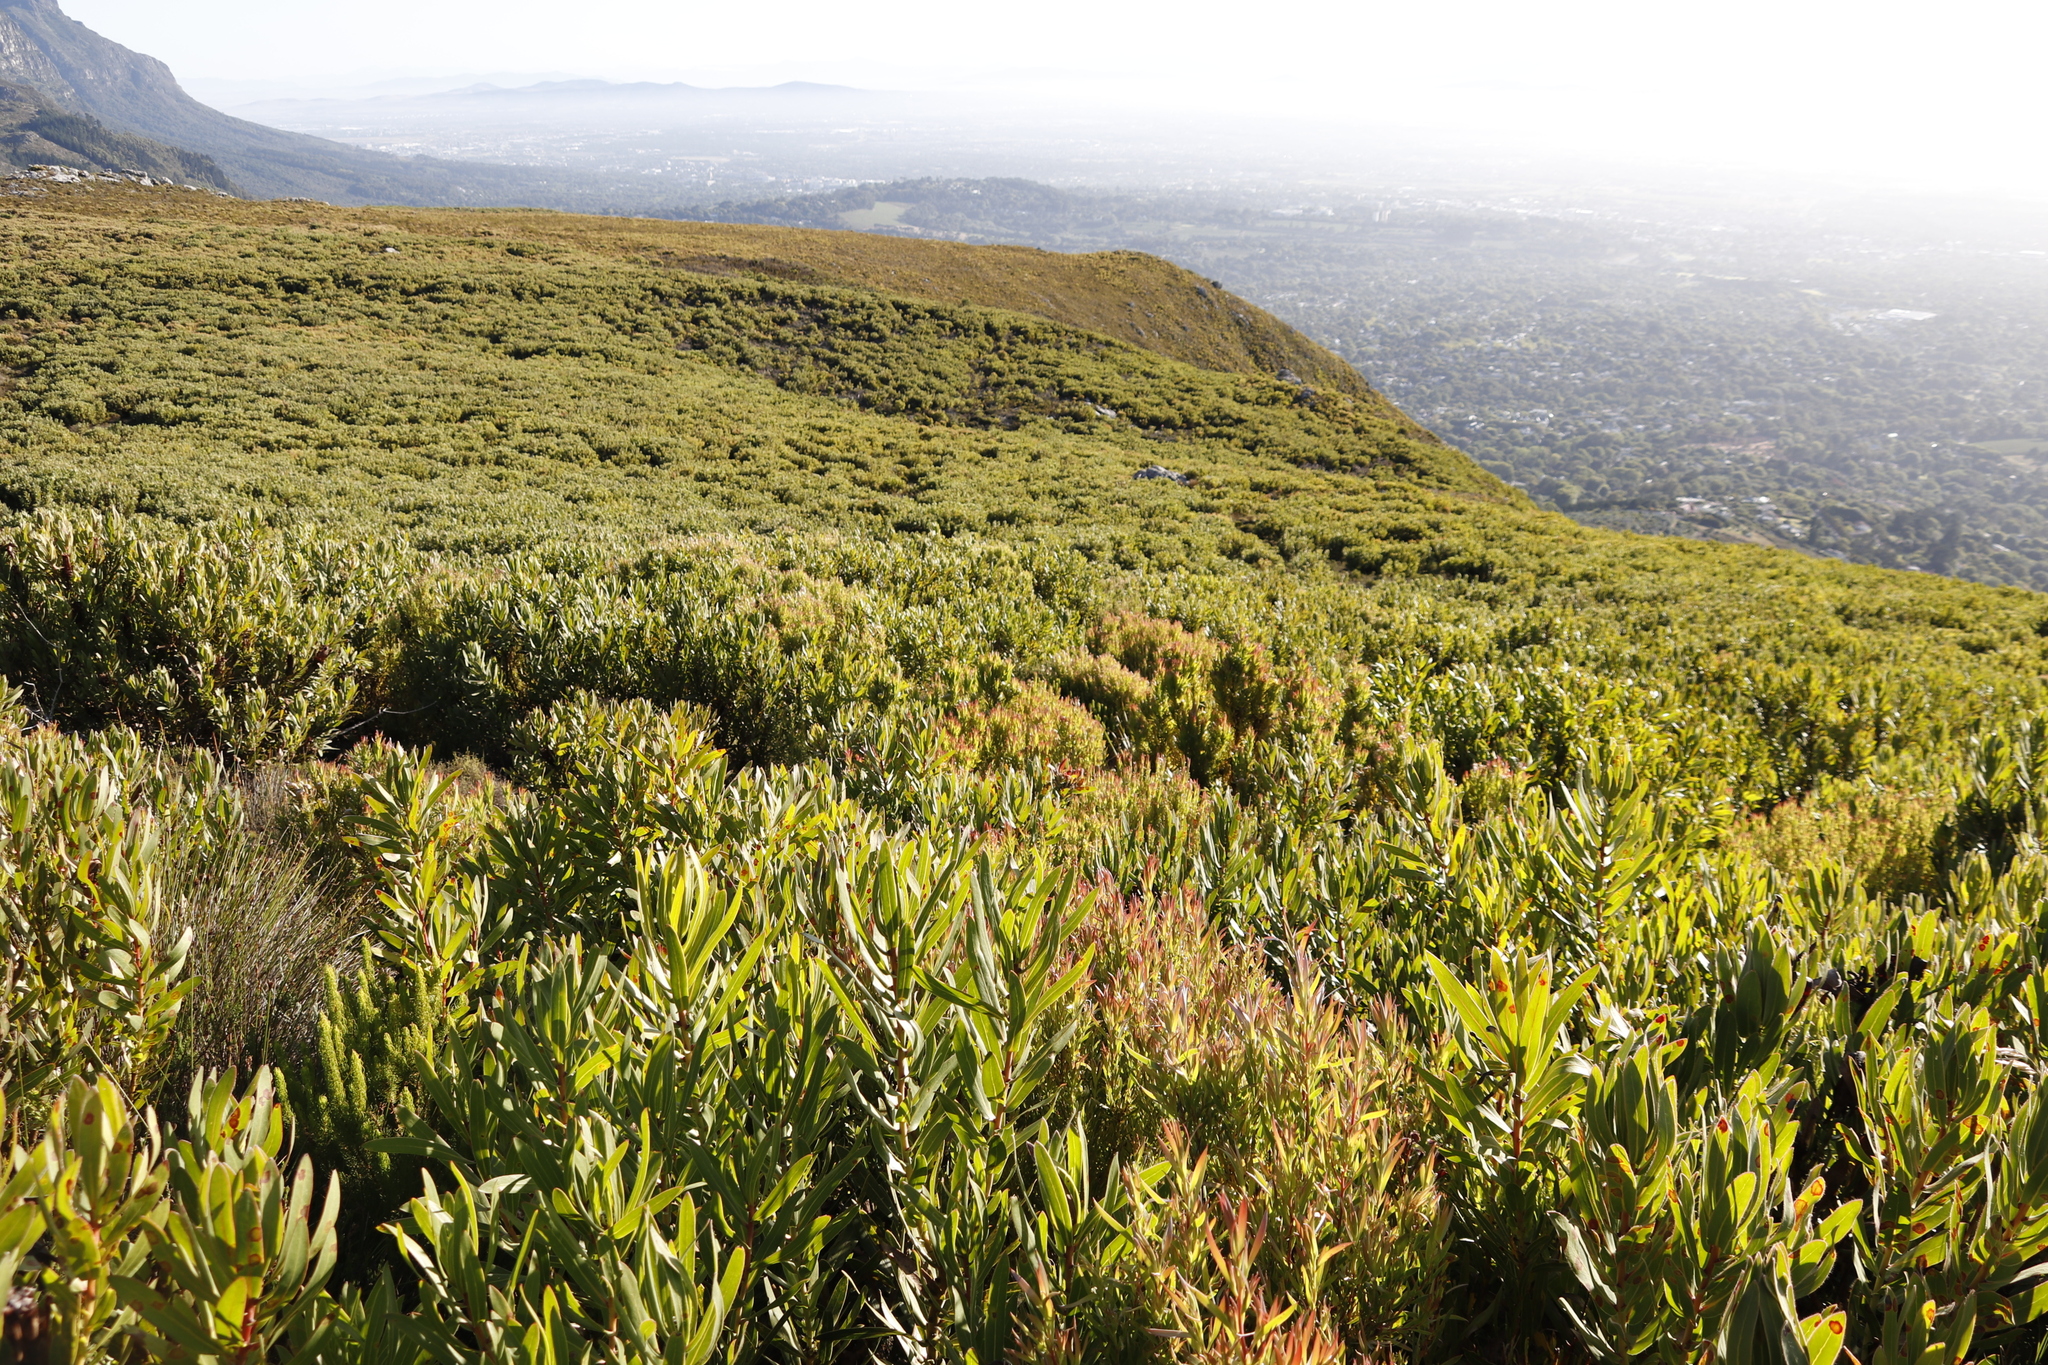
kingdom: Plantae
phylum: Tracheophyta
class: Magnoliopsida
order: Proteales
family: Proteaceae
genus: Protea
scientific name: Protea lepidocarpodendron
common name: Black-bearded protea
